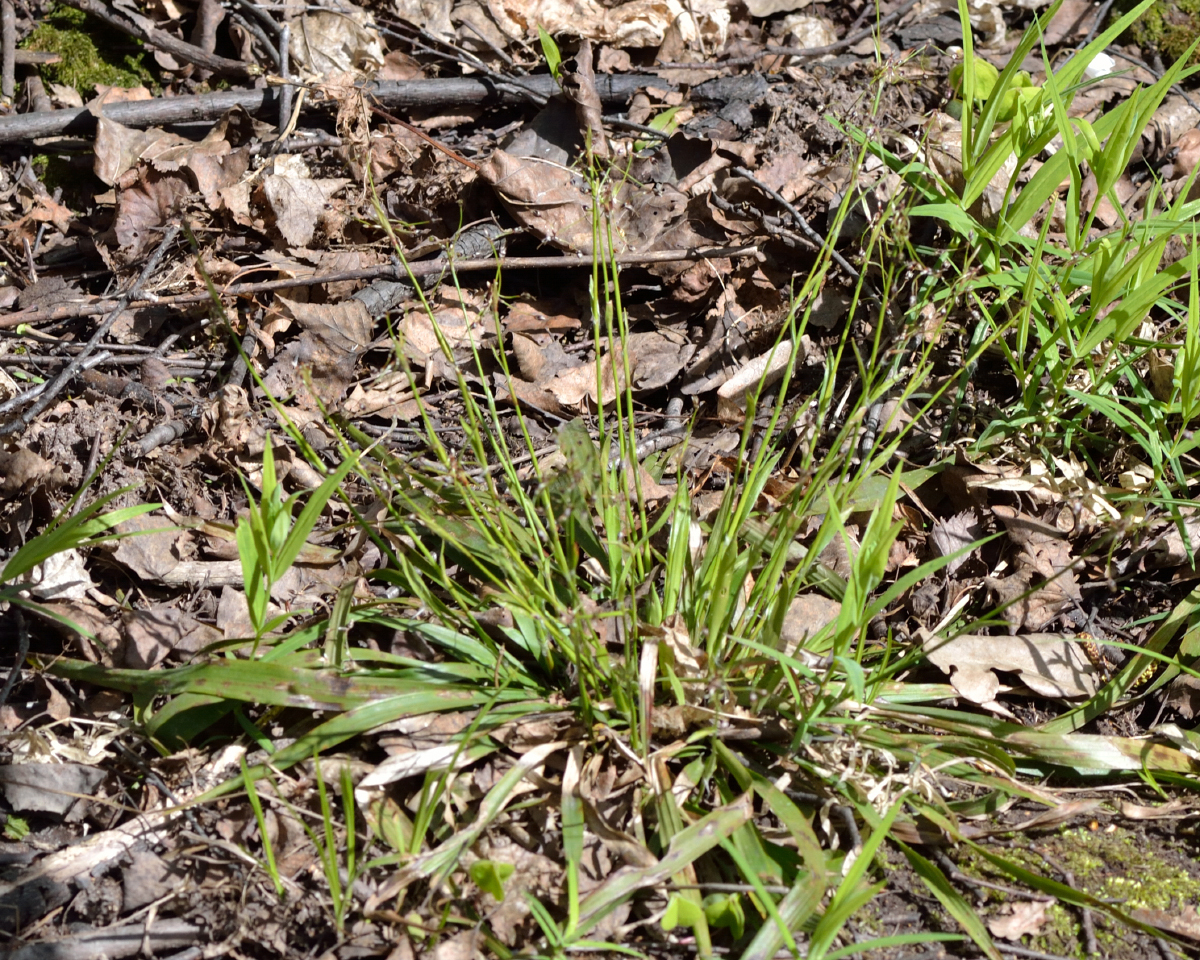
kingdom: Plantae
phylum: Tracheophyta
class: Liliopsida
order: Poales
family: Juncaceae
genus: Luzula
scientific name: Luzula pilosa
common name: Hairy wood-rush
